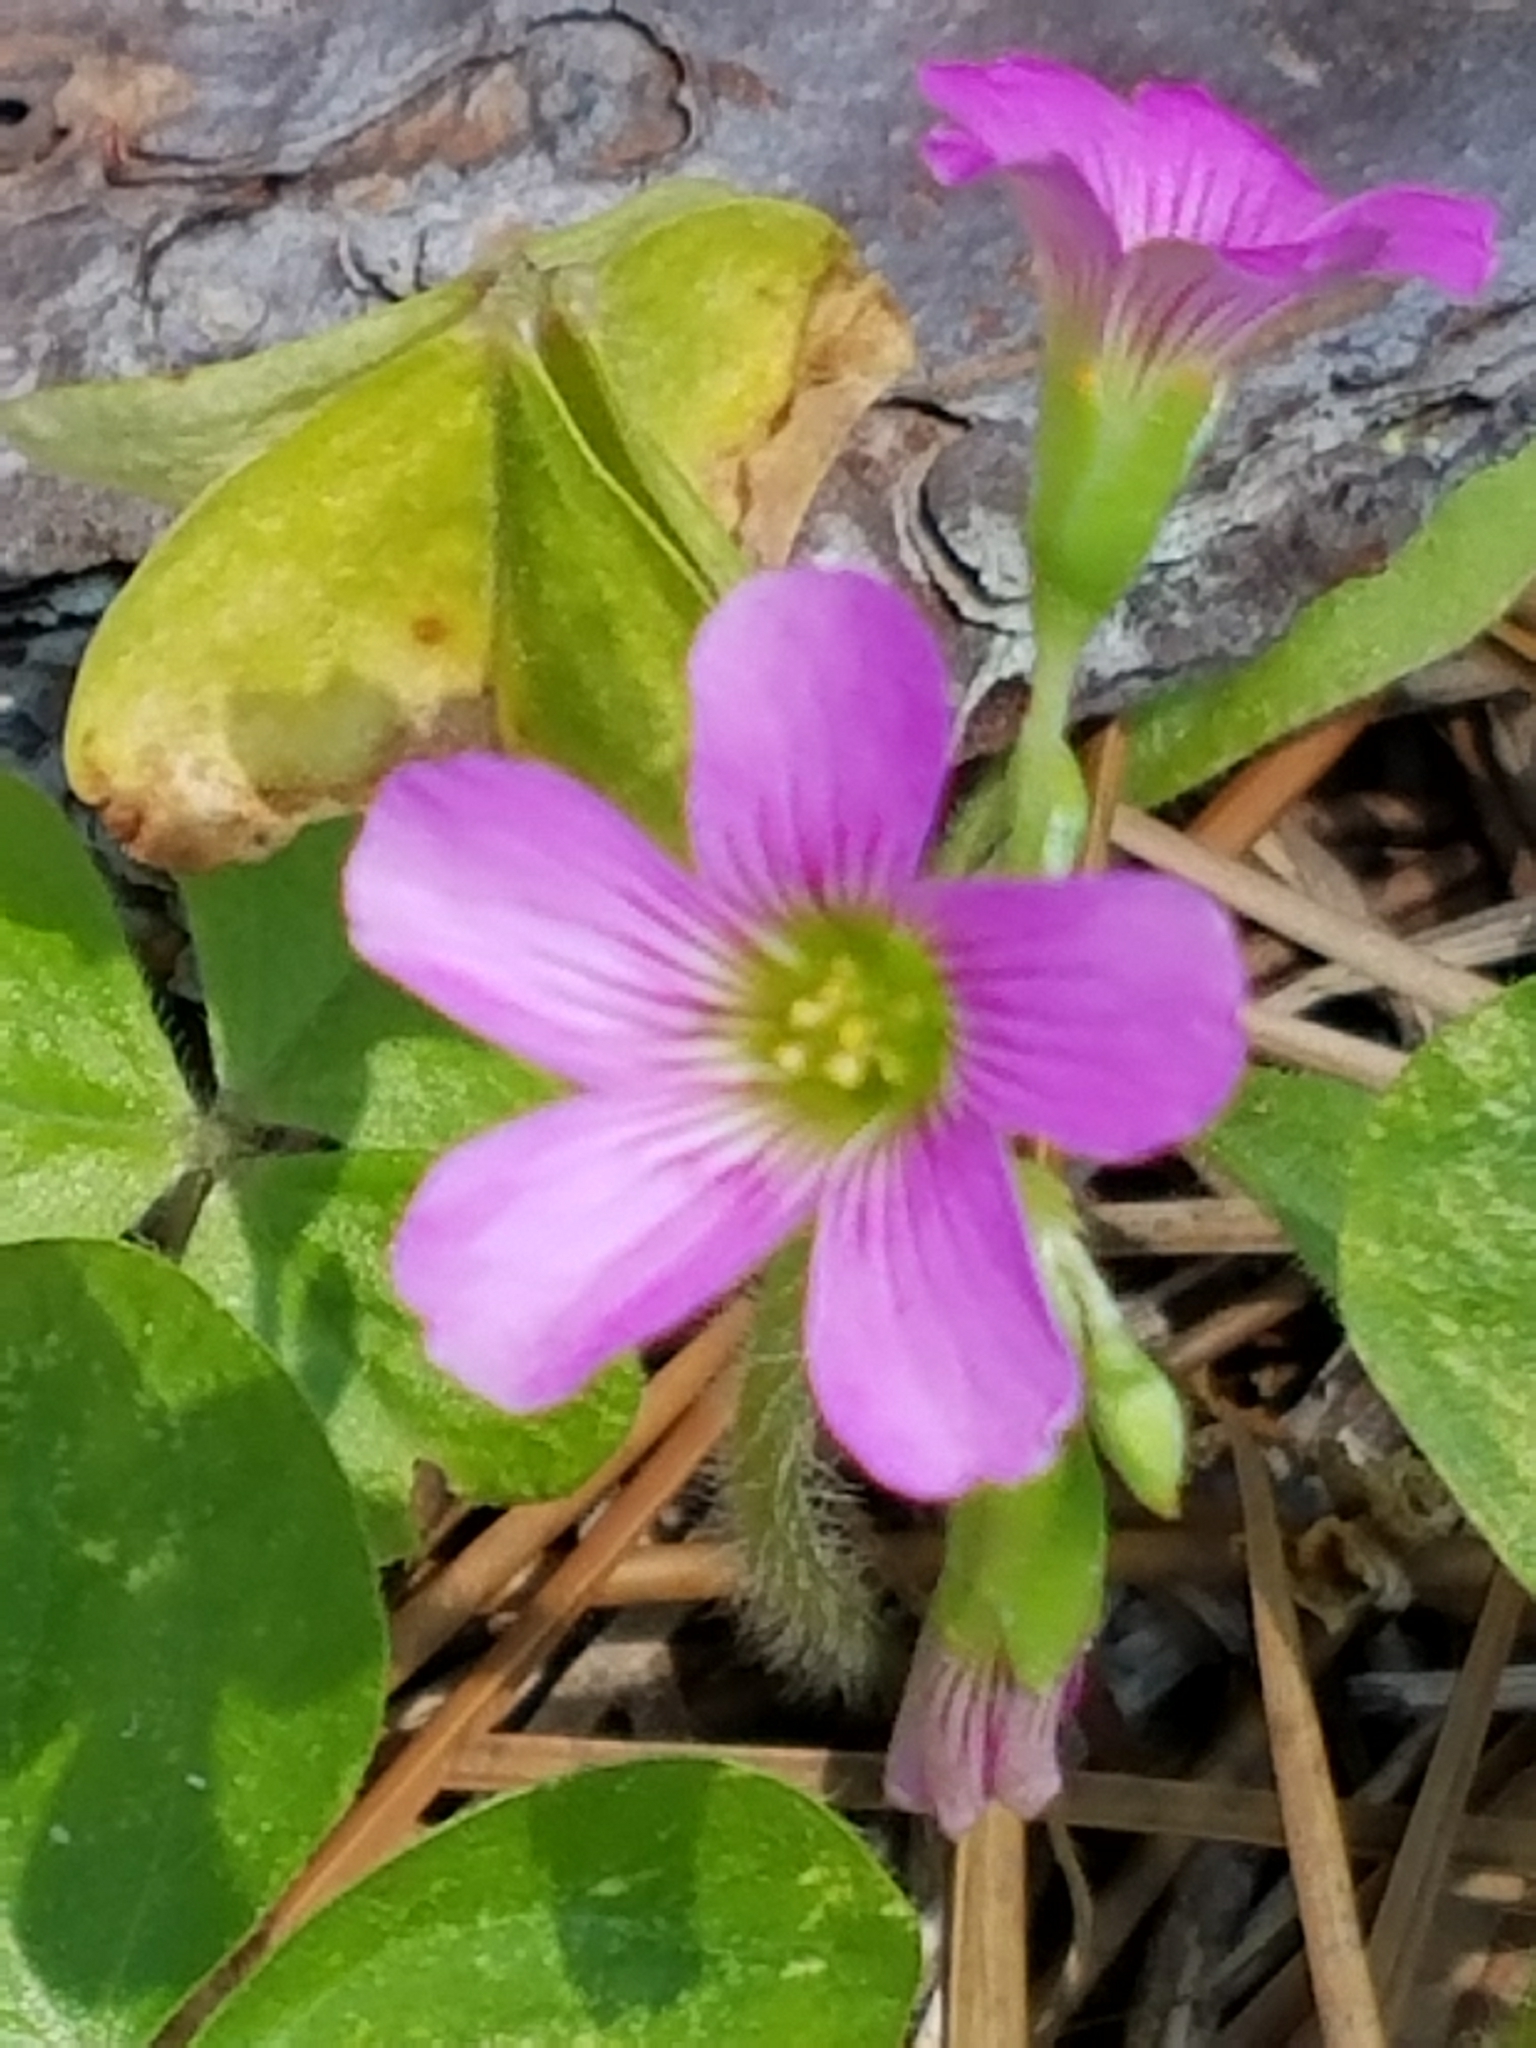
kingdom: Plantae
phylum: Tracheophyta
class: Magnoliopsida
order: Oxalidales
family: Oxalidaceae
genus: Oxalis
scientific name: Oxalis debilis
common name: Large-flowered pink-sorrel
